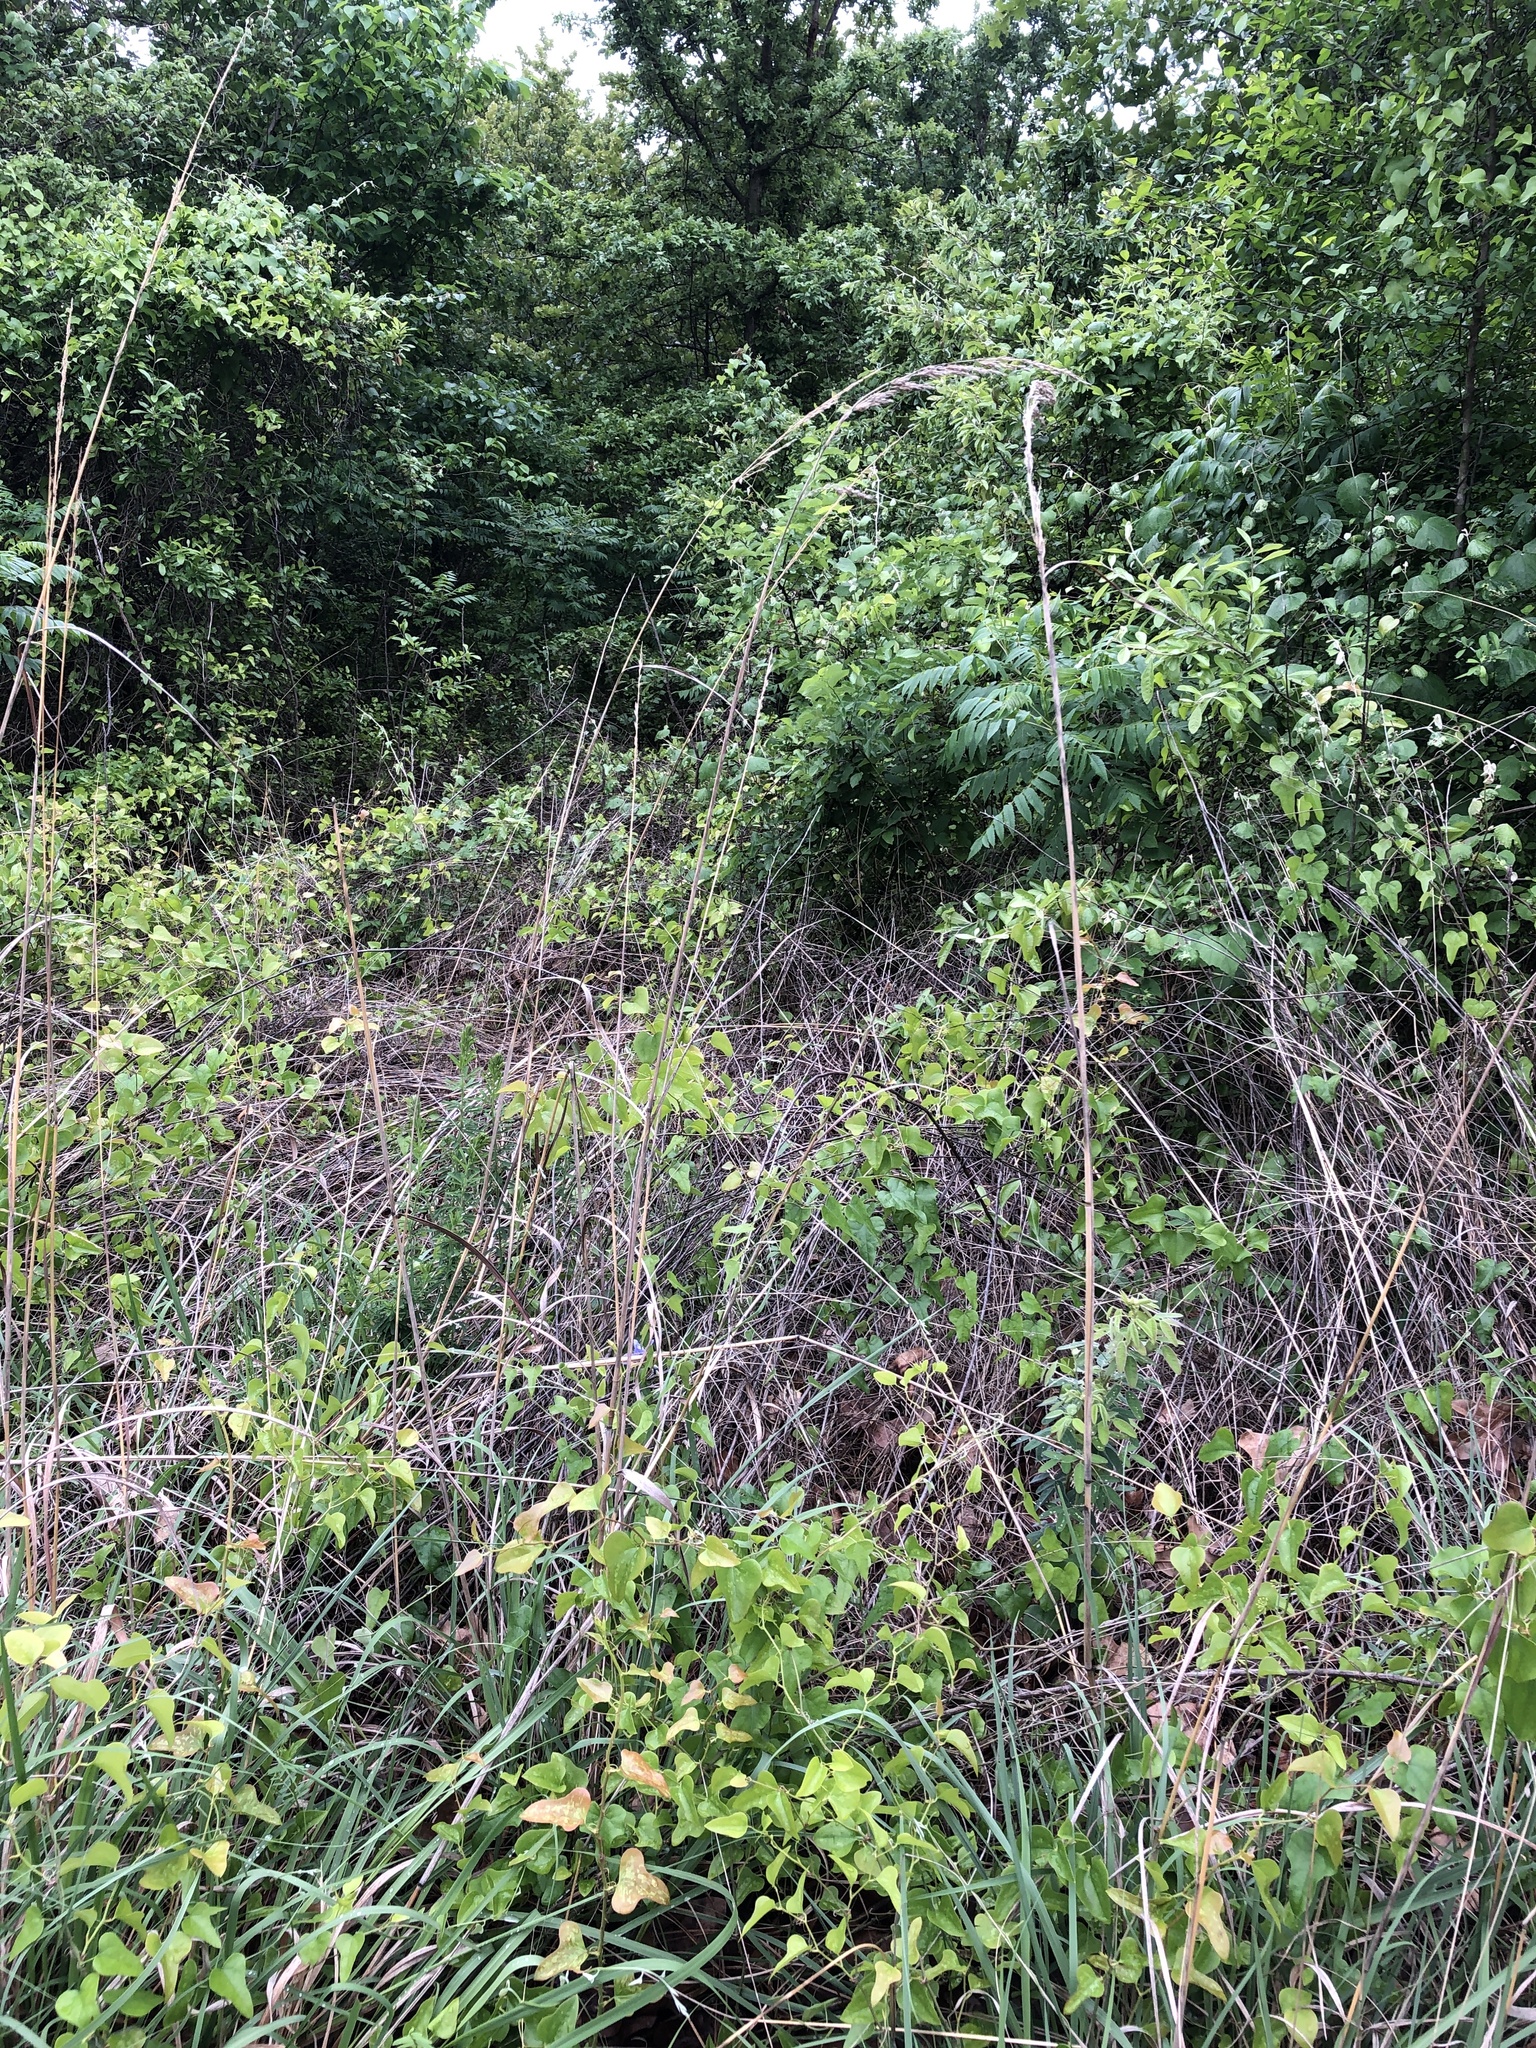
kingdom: Plantae
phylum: Tracheophyta
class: Liliopsida
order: Poales
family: Poaceae
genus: Sorghastrum
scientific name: Sorghastrum nutans
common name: Indian grass
